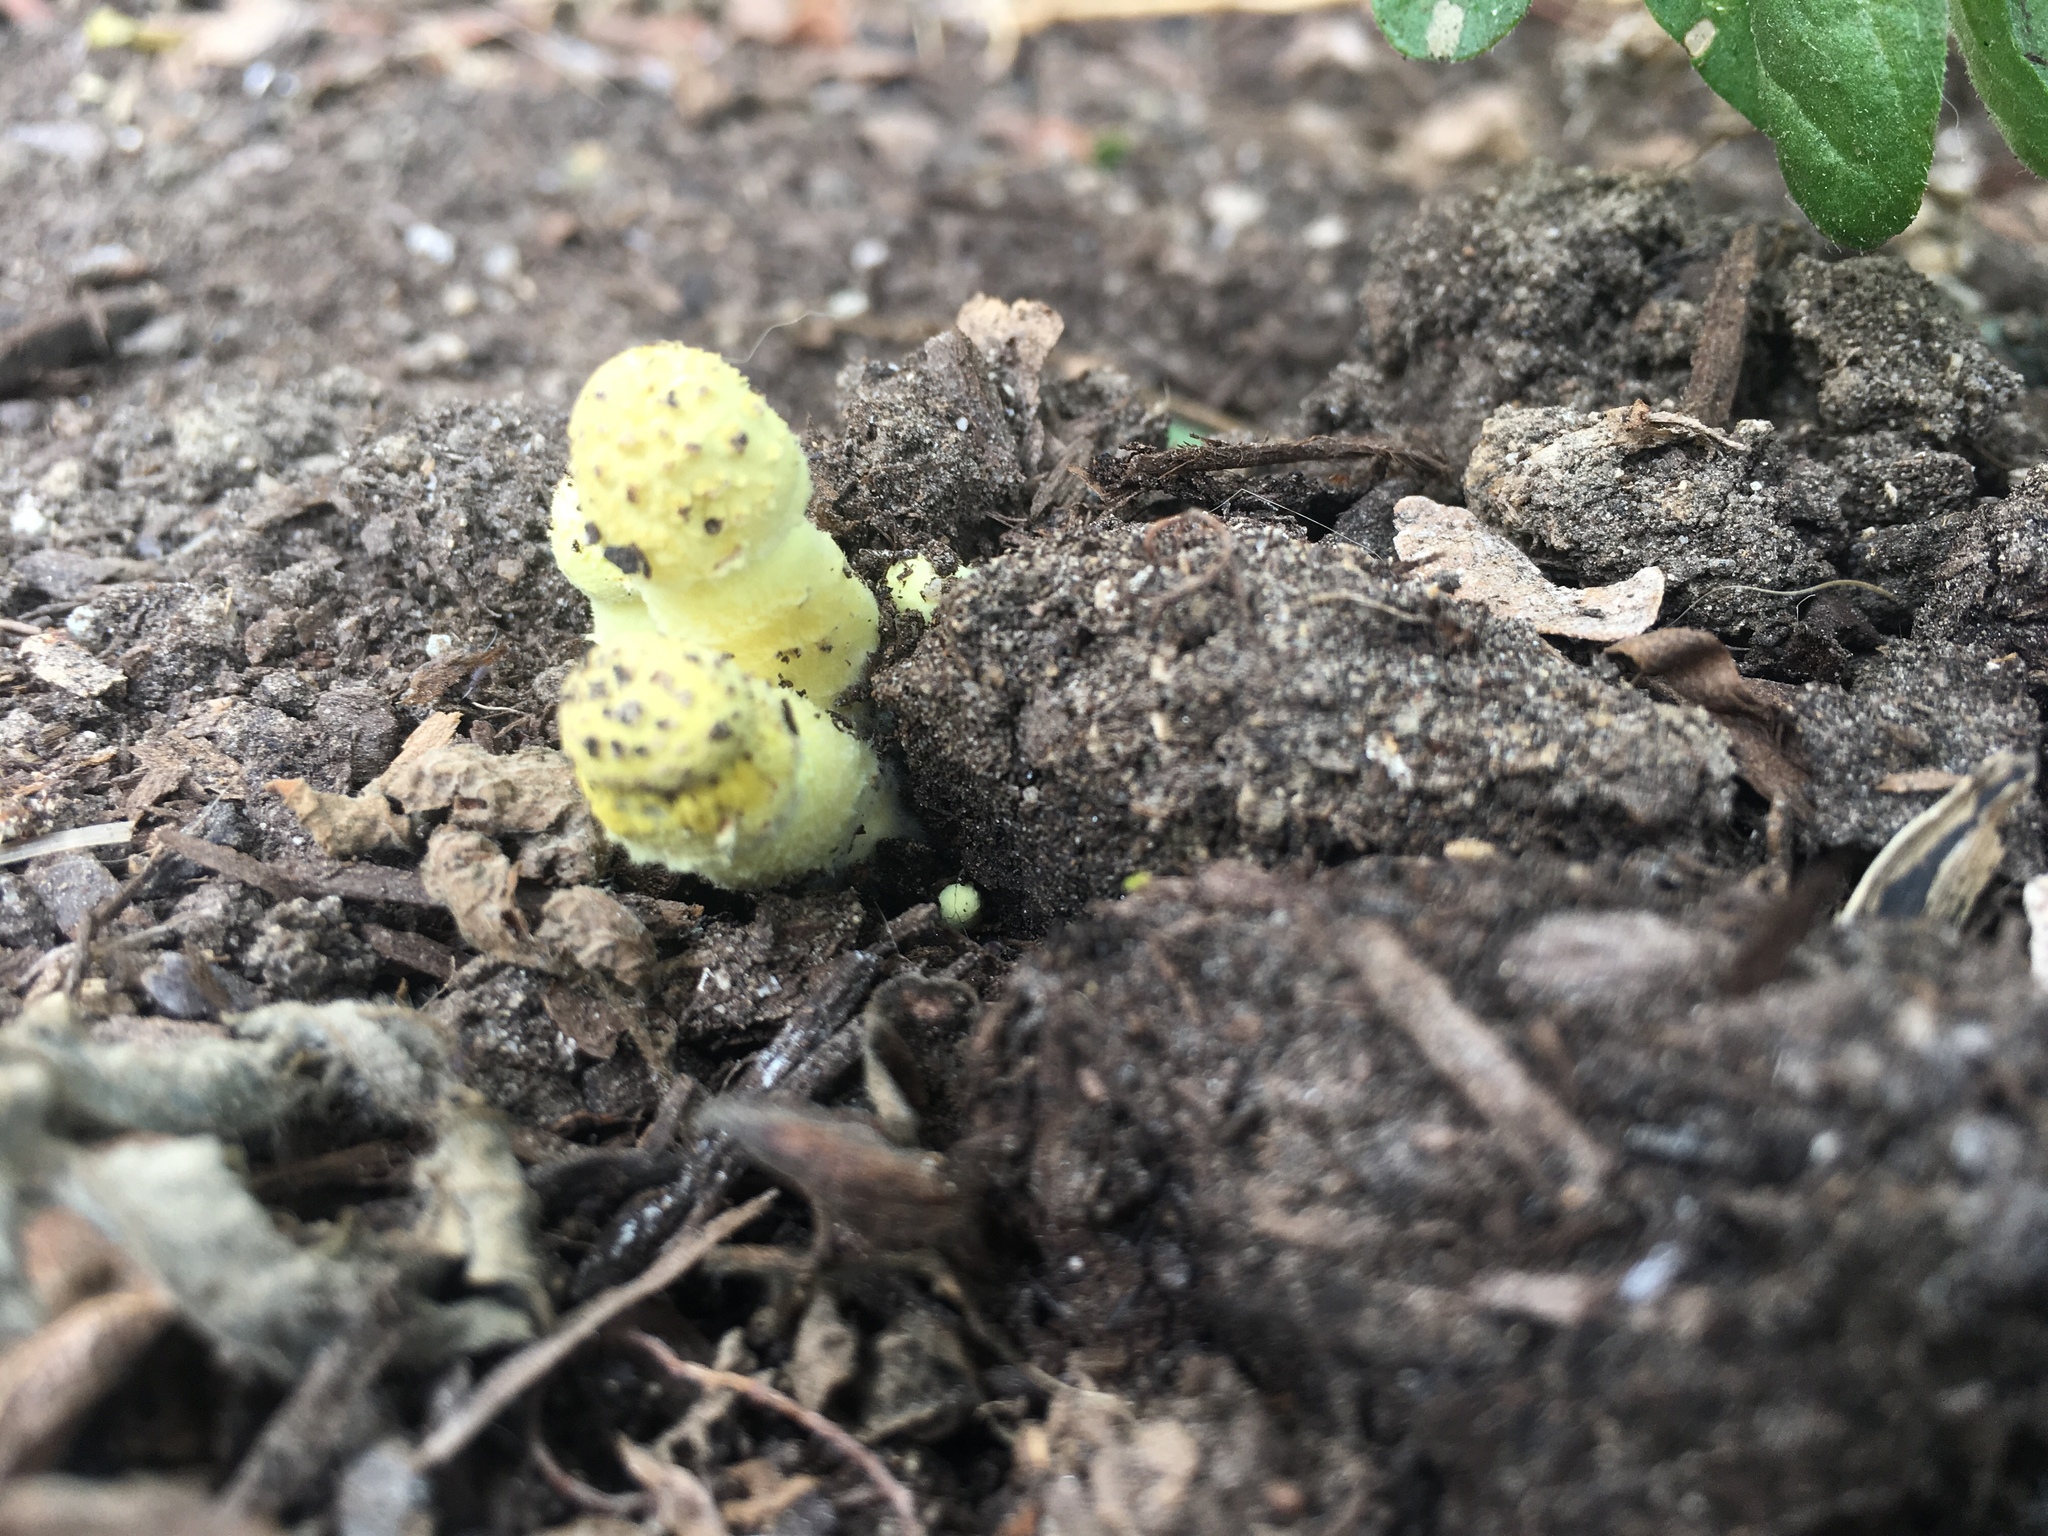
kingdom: Fungi
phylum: Basidiomycota
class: Agaricomycetes
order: Agaricales
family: Agaricaceae
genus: Leucocoprinus
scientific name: Leucocoprinus birnbaumii
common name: Plantpot dapperling
